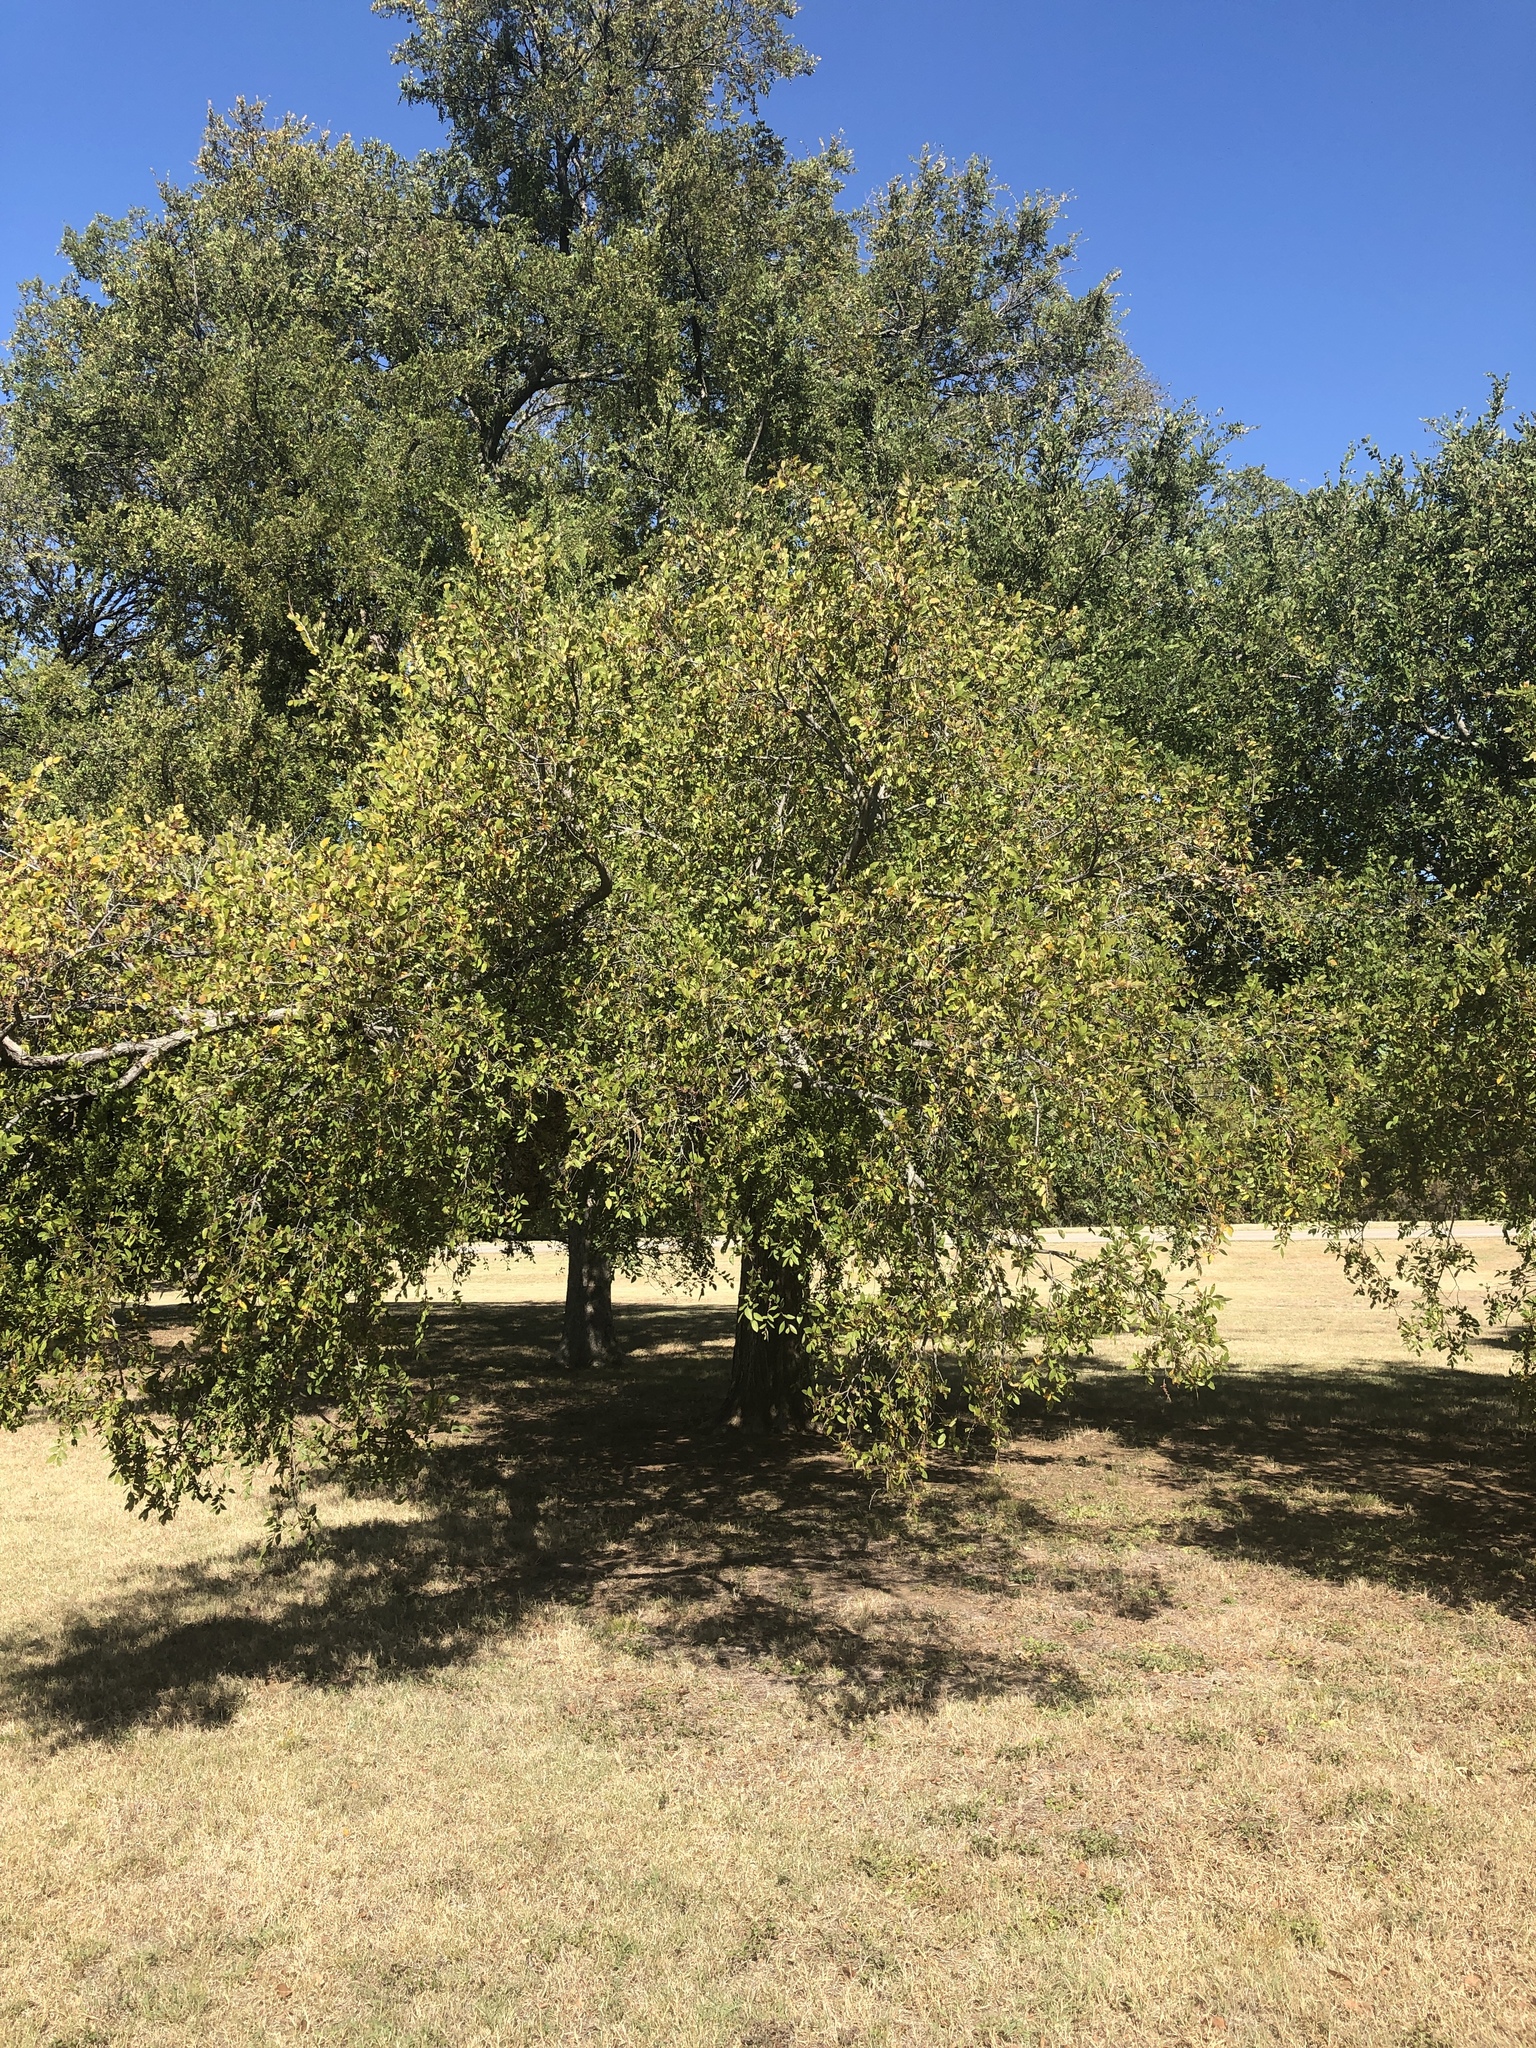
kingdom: Plantae
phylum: Tracheophyta
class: Magnoliopsida
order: Rosales
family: Ulmaceae
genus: Ulmus
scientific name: Ulmus crassifolia
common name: Basket elm
